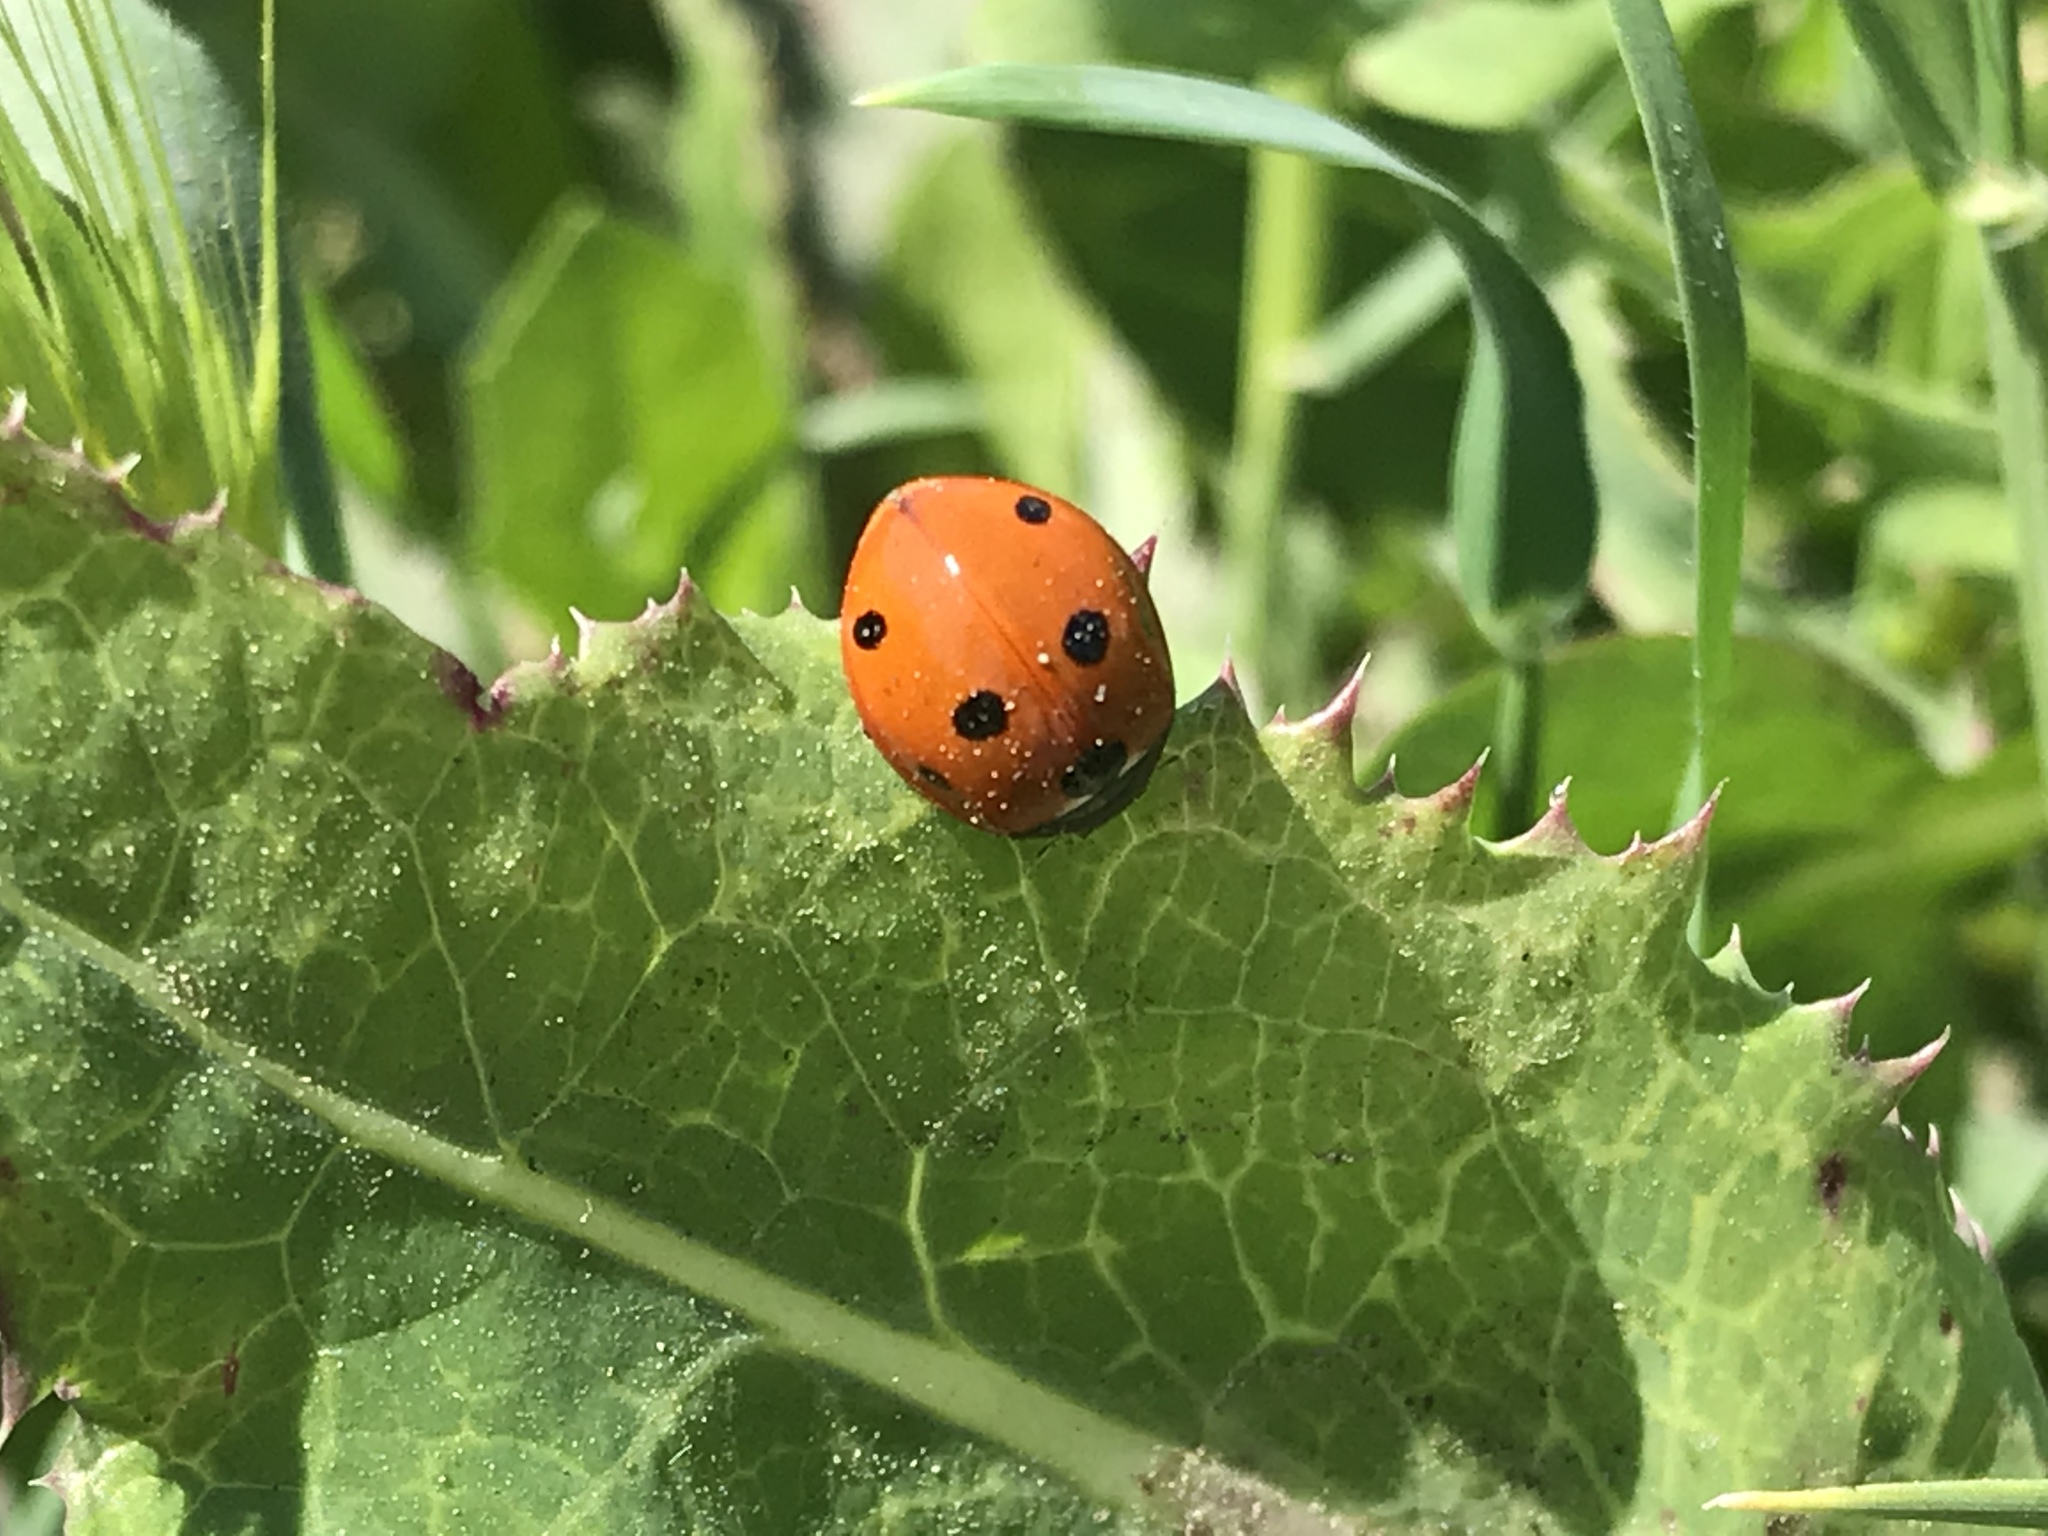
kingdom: Animalia
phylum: Arthropoda
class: Insecta
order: Coleoptera
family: Coccinellidae
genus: Coccinella
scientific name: Coccinella septempunctata
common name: Sevenspotted lady beetle
